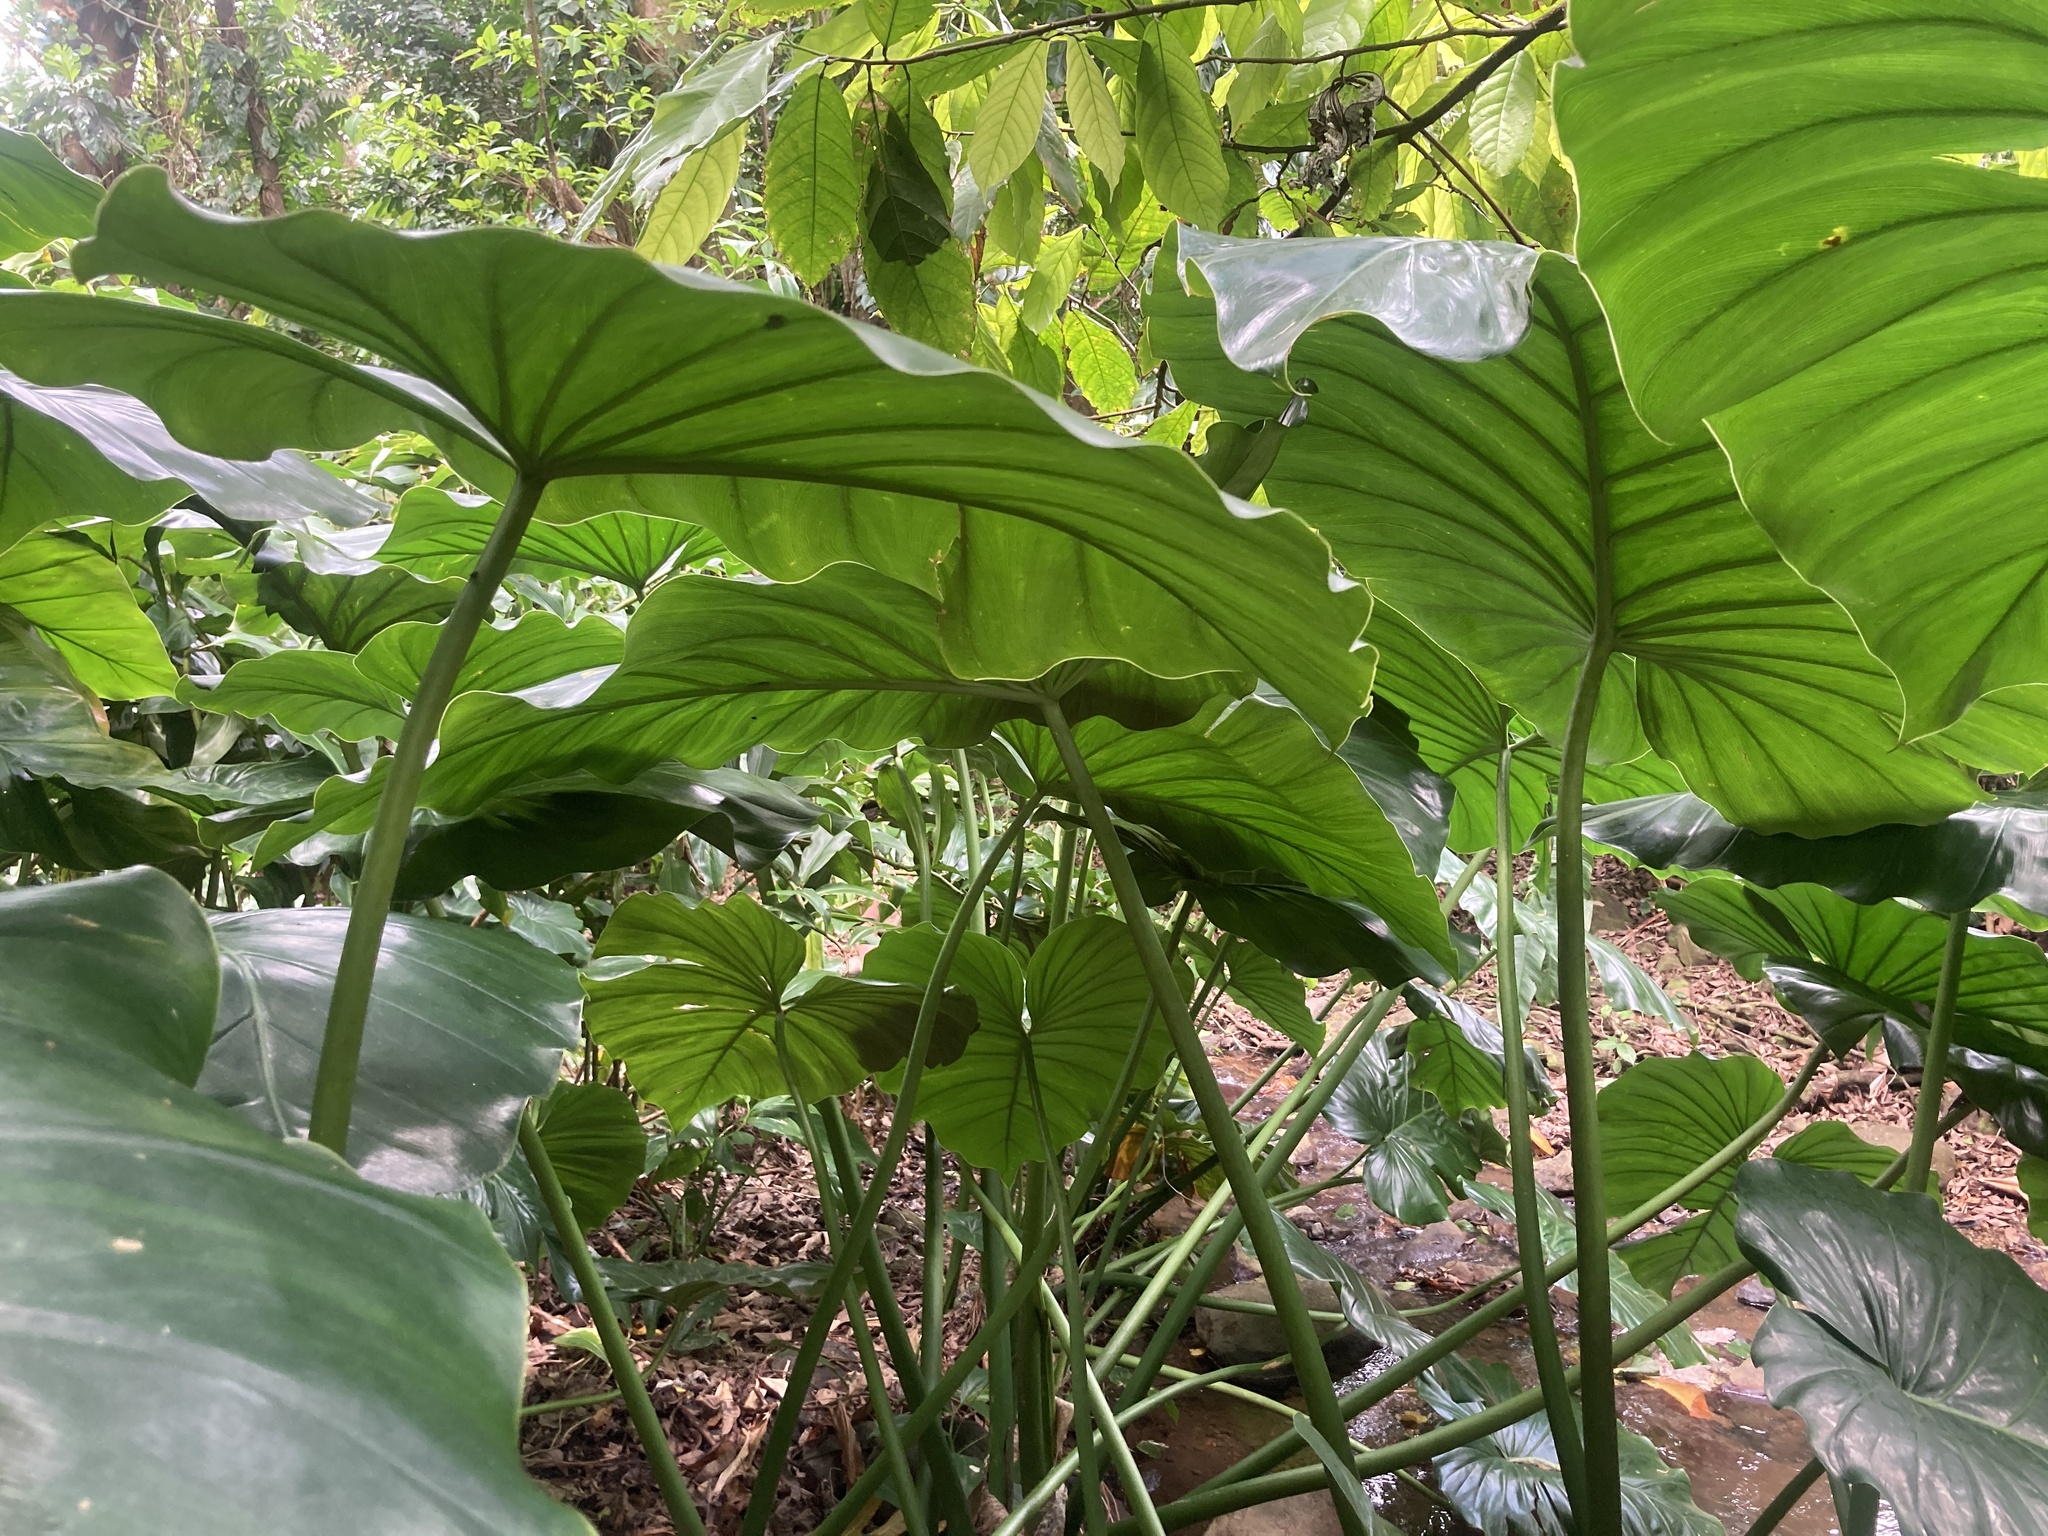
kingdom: Plantae
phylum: Tracheophyta
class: Liliopsida
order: Alismatales
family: Araceae
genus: Philodendron
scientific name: Philodendron giganteum
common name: Giant philodendron
